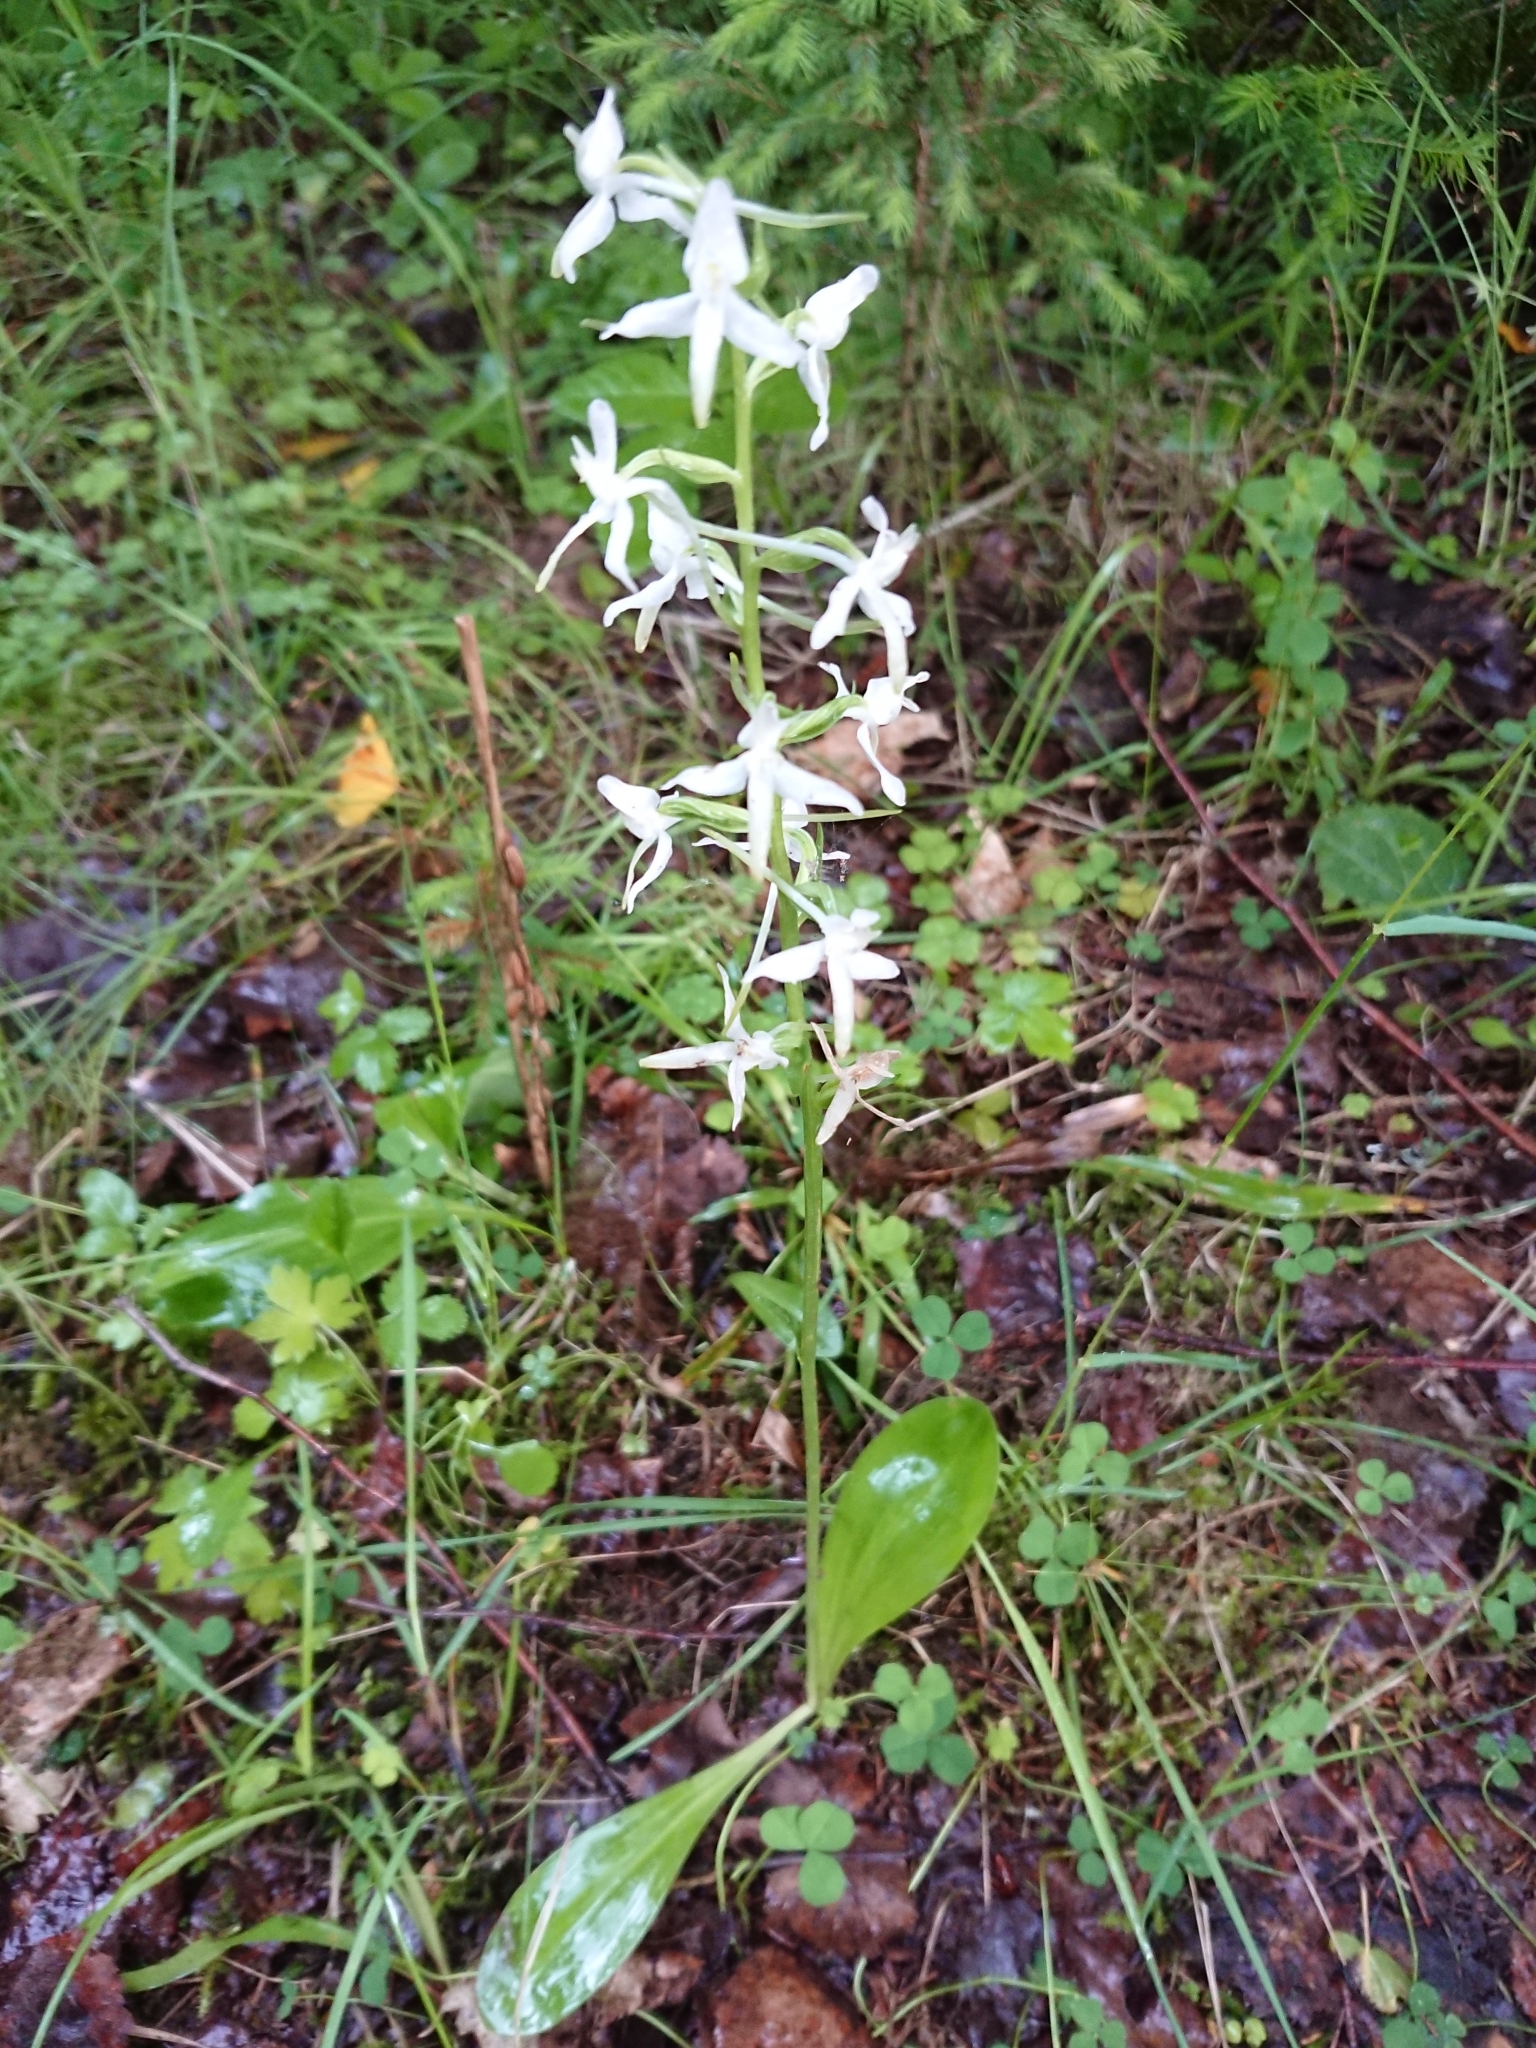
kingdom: Plantae
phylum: Tracheophyta
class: Liliopsida
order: Asparagales
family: Orchidaceae
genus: Platanthera
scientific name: Platanthera bifolia
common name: Lesser butterfly-orchid
